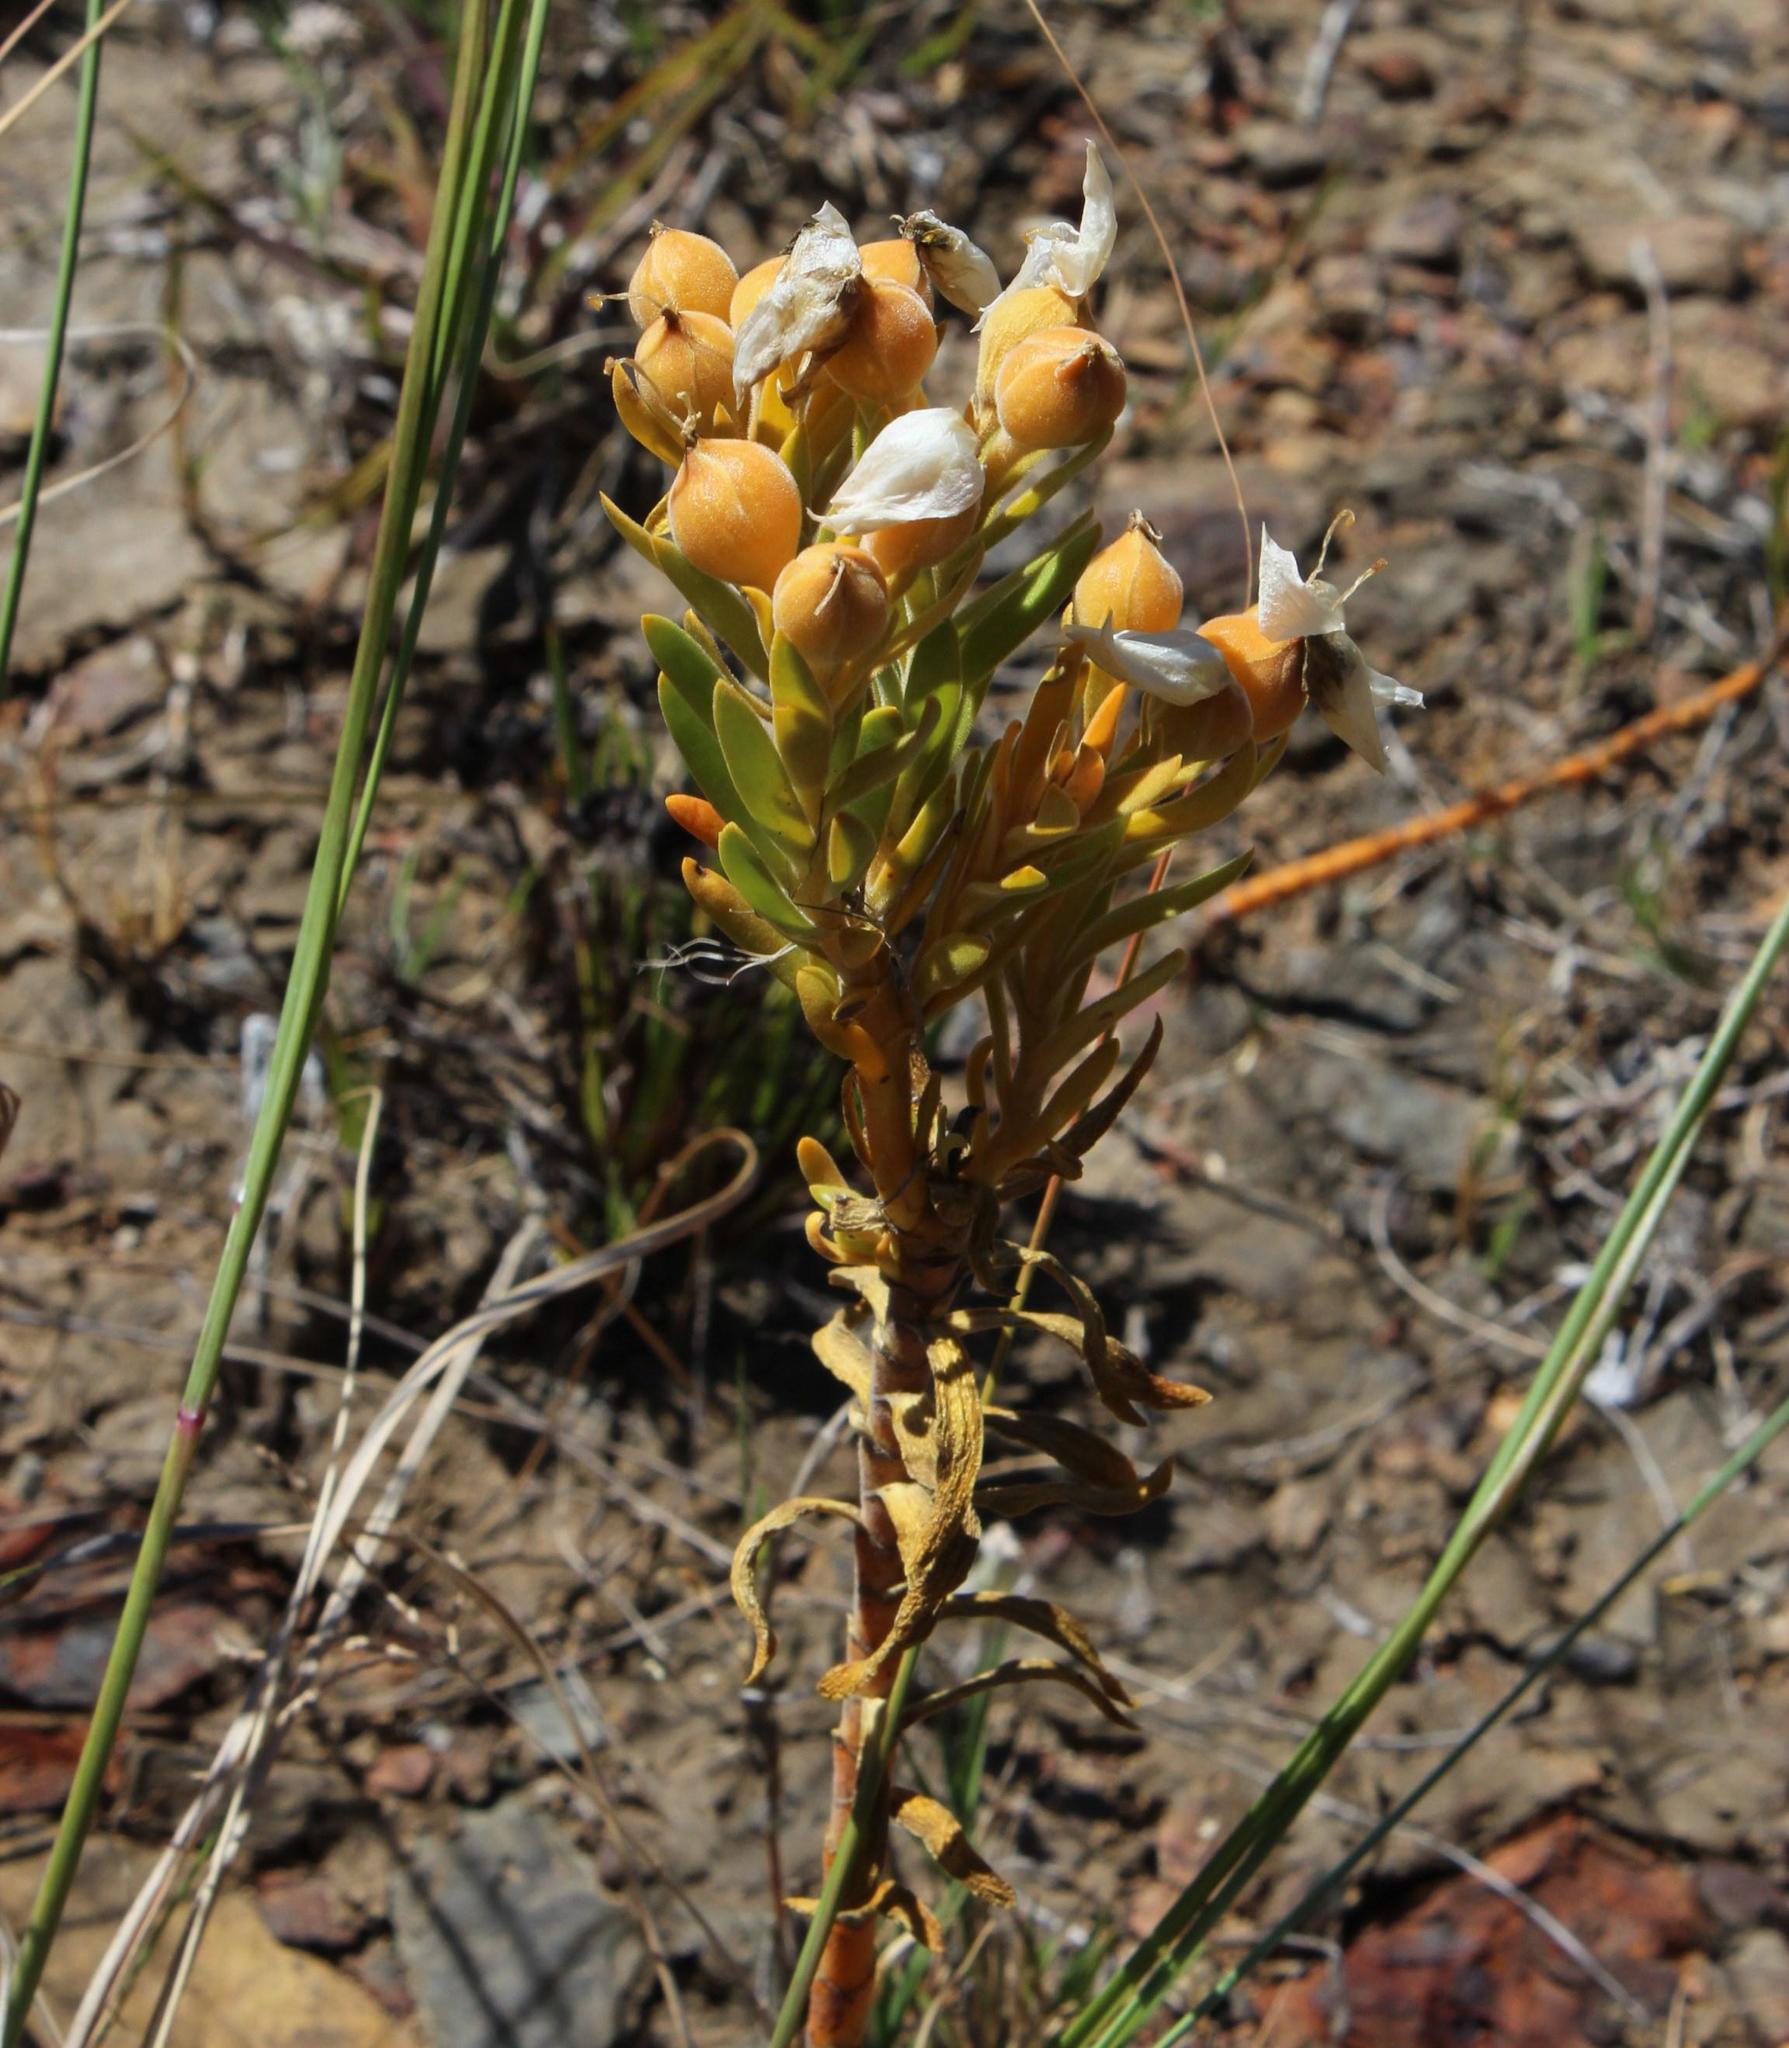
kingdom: Plantae
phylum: Tracheophyta
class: Magnoliopsida
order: Gentianales
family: Gentianaceae
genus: Orphium
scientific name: Orphium frutescens
